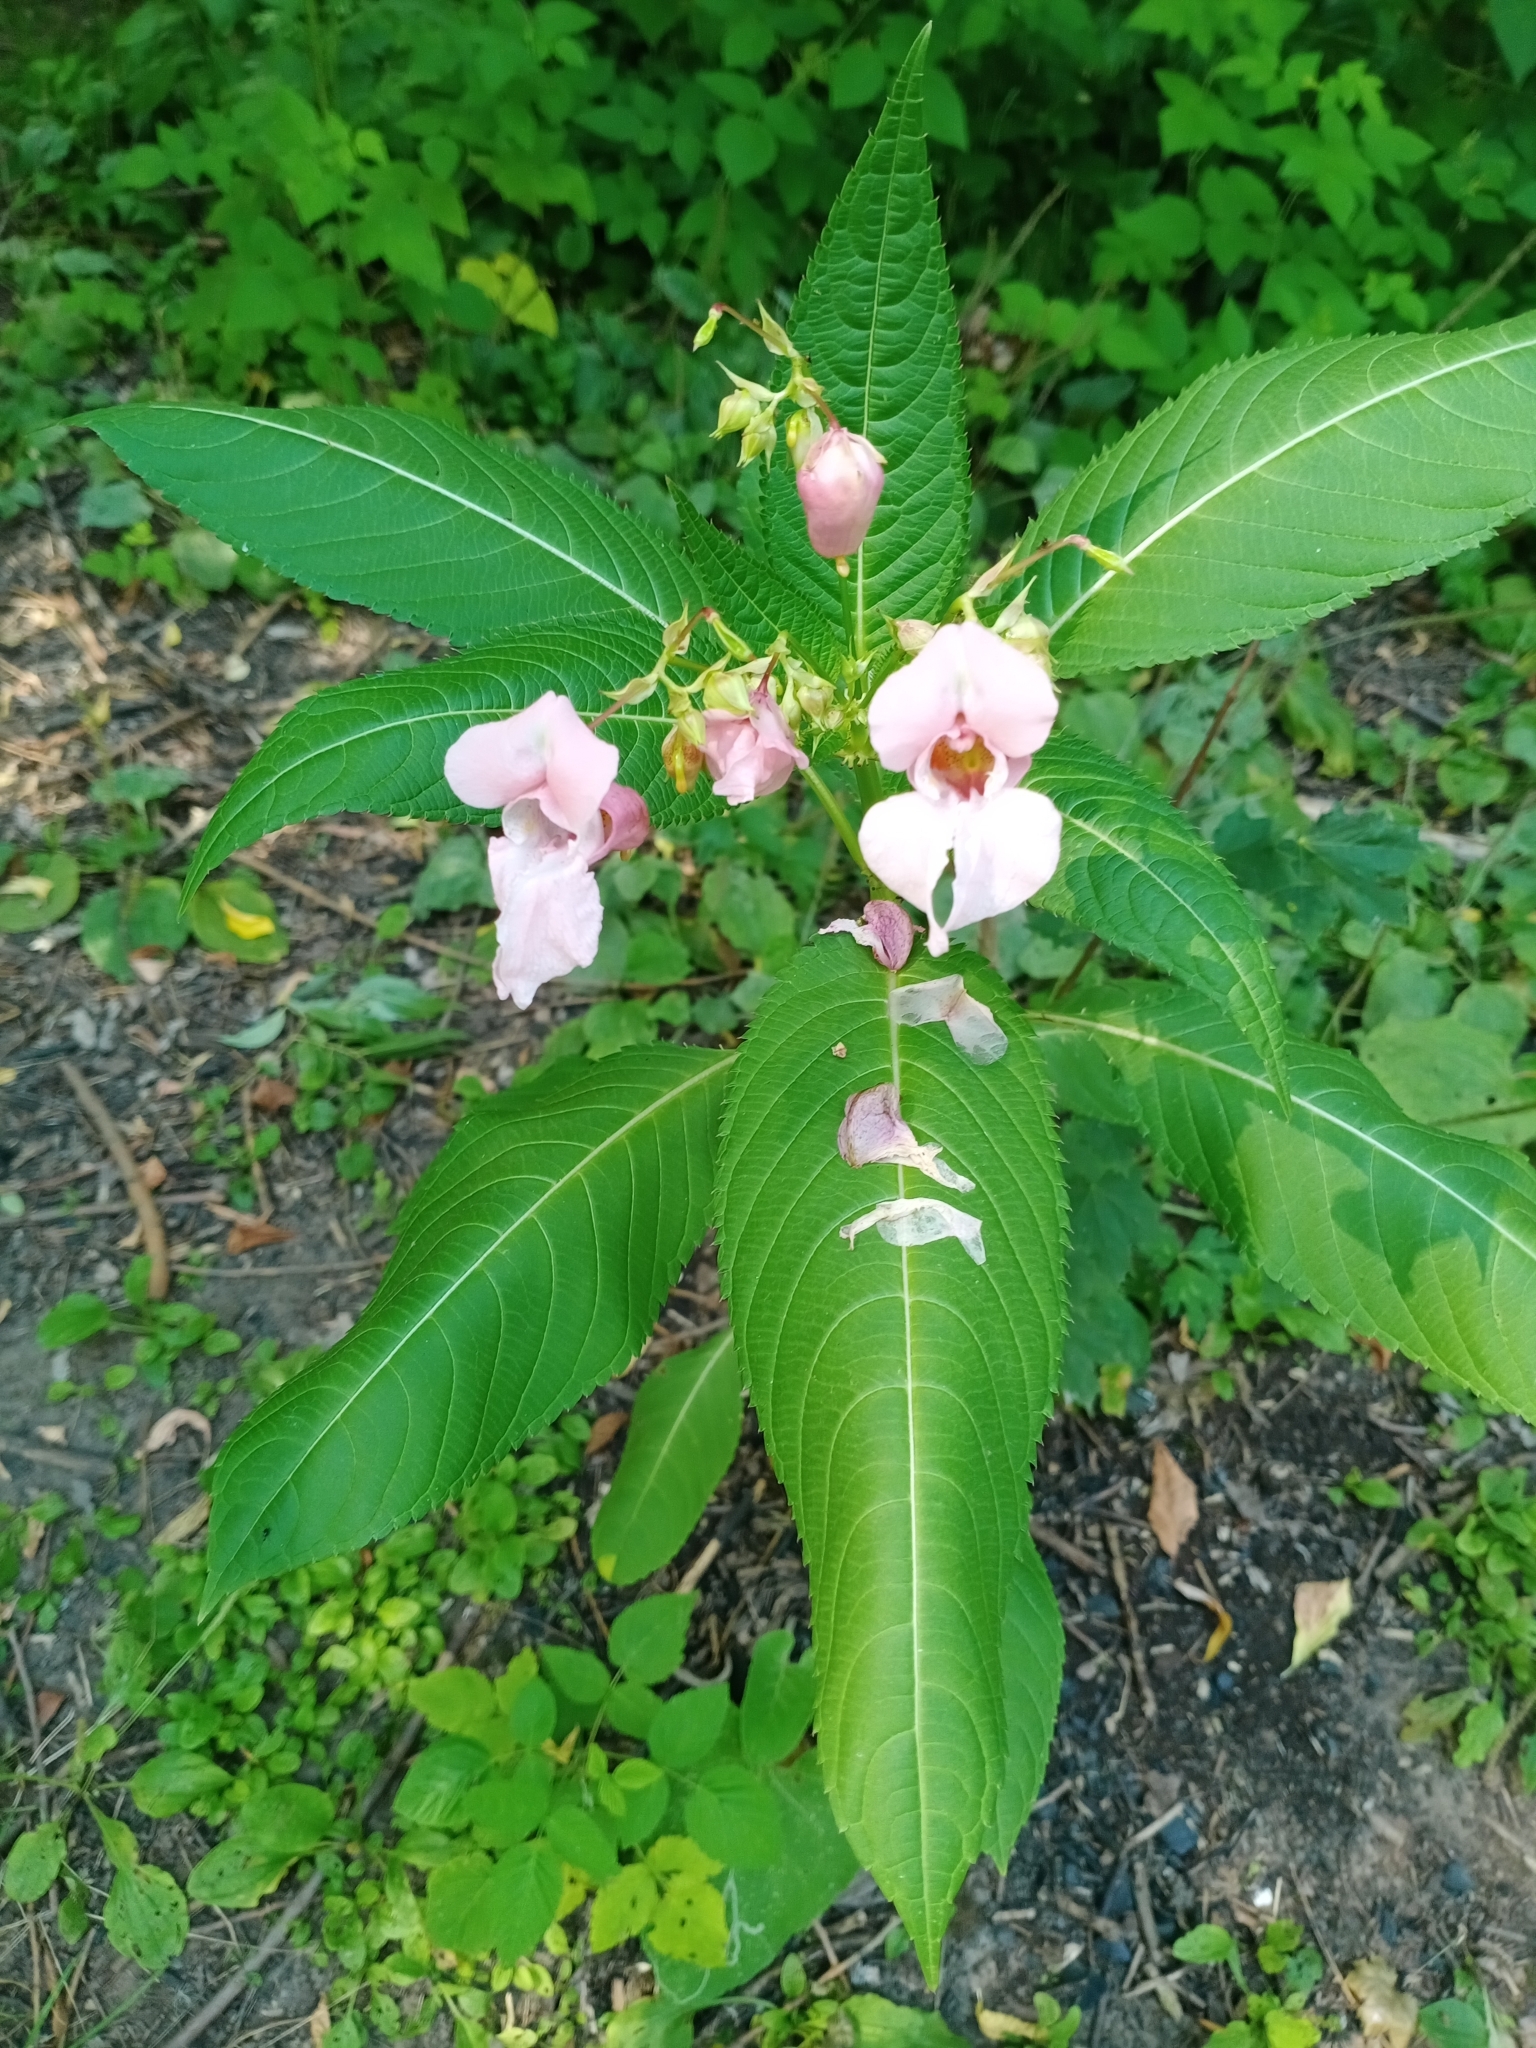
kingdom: Plantae
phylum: Tracheophyta
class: Magnoliopsida
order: Ericales
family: Balsaminaceae
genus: Impatiens
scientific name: Impatiens glandulifera
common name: Himalayan balsam
